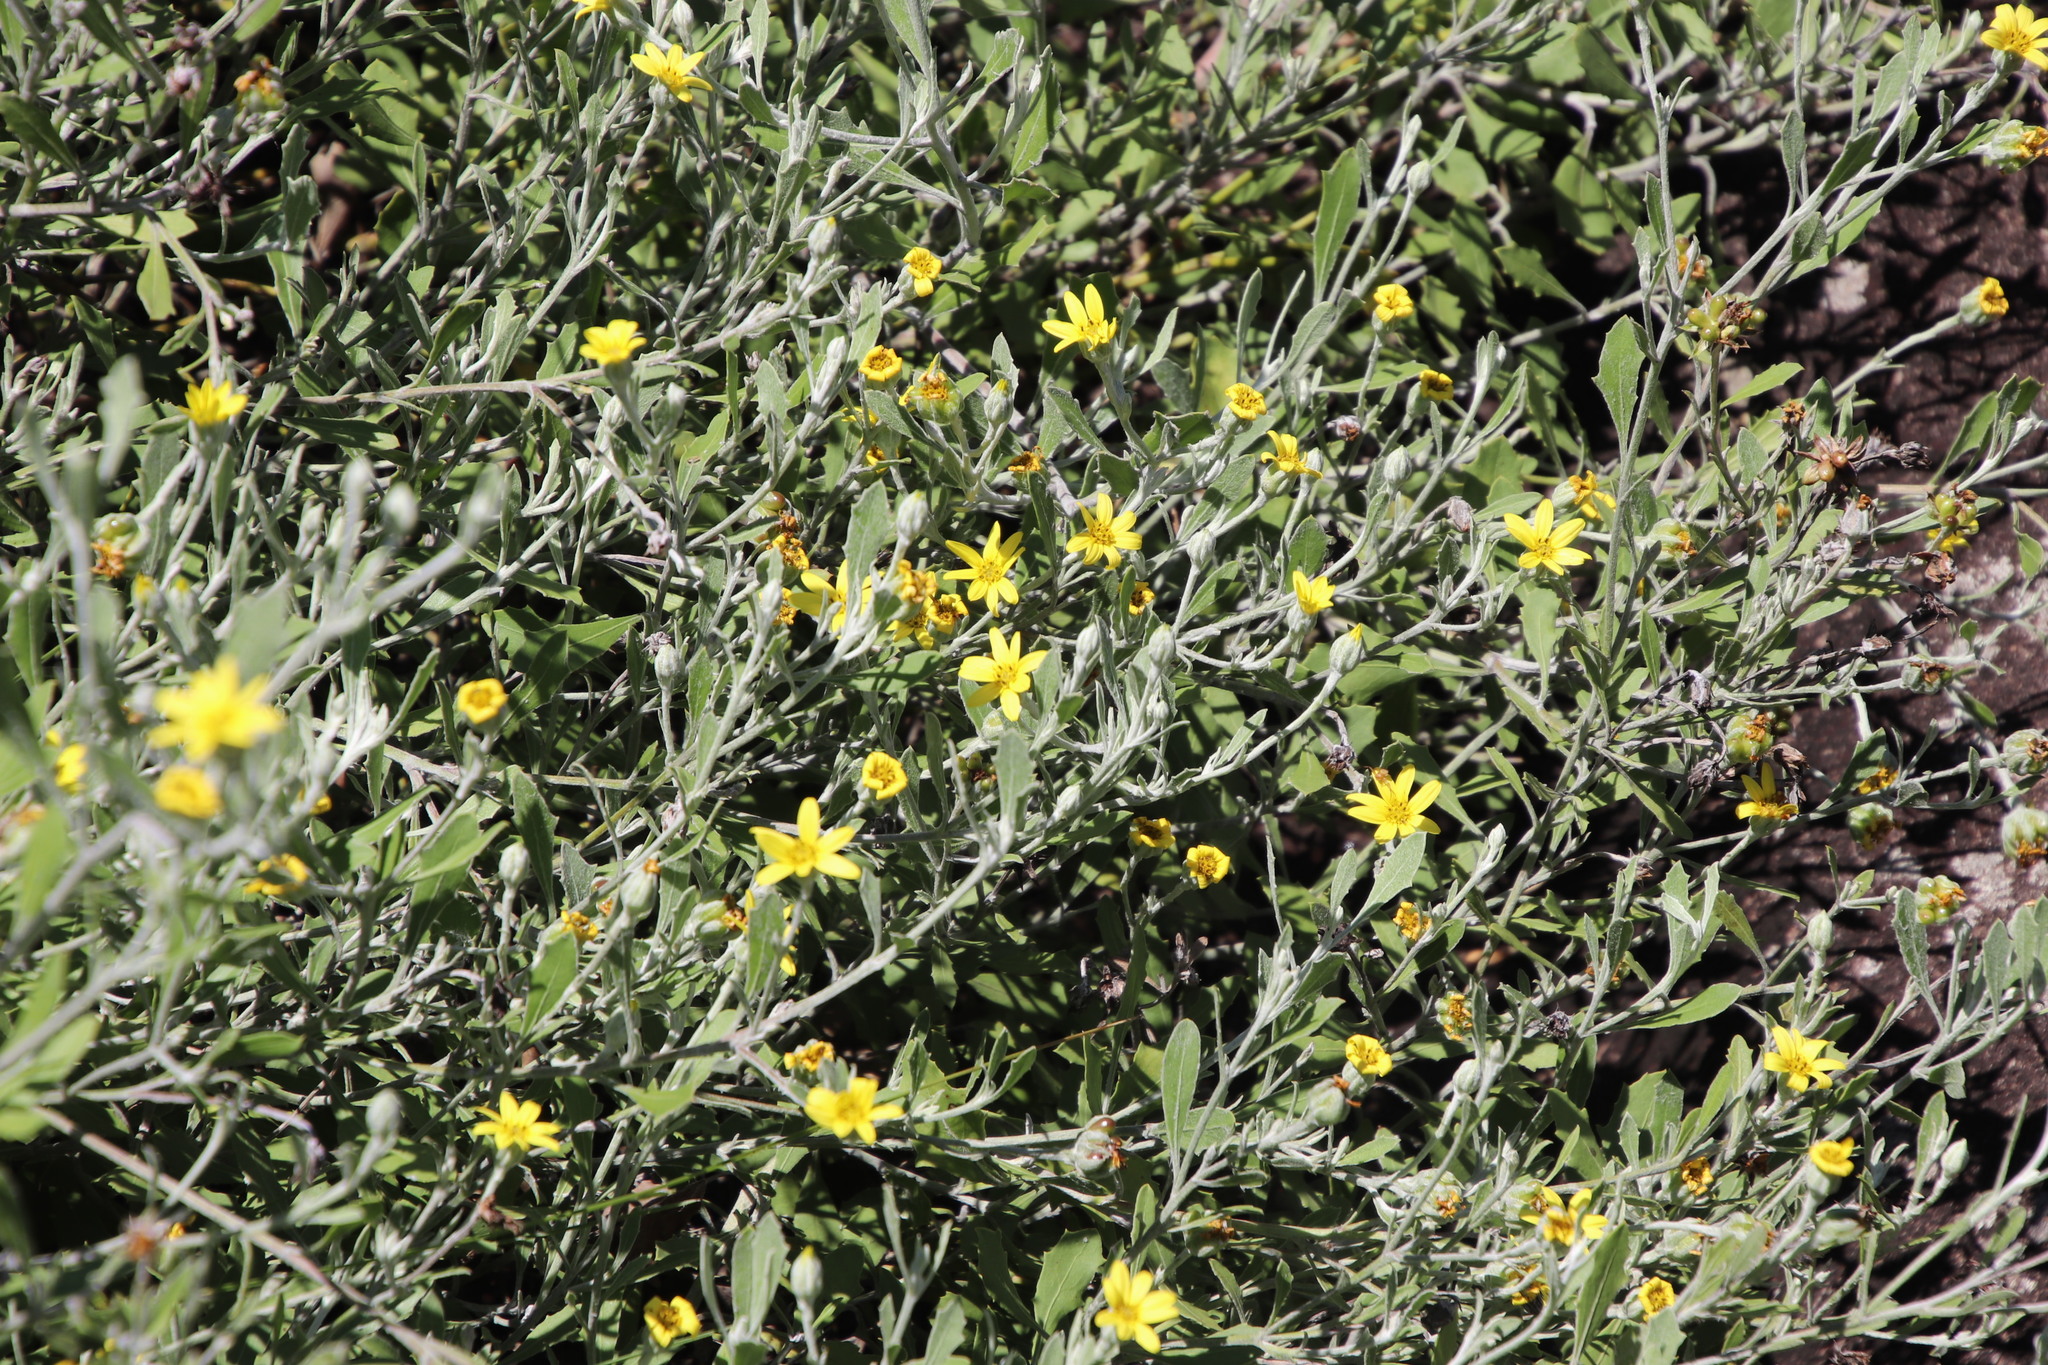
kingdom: Plantae
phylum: Tracheophyta
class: Magnoliopsida
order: Asterales
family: Asteraceae
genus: Osteospermum
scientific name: Osteospermum moniliferum
